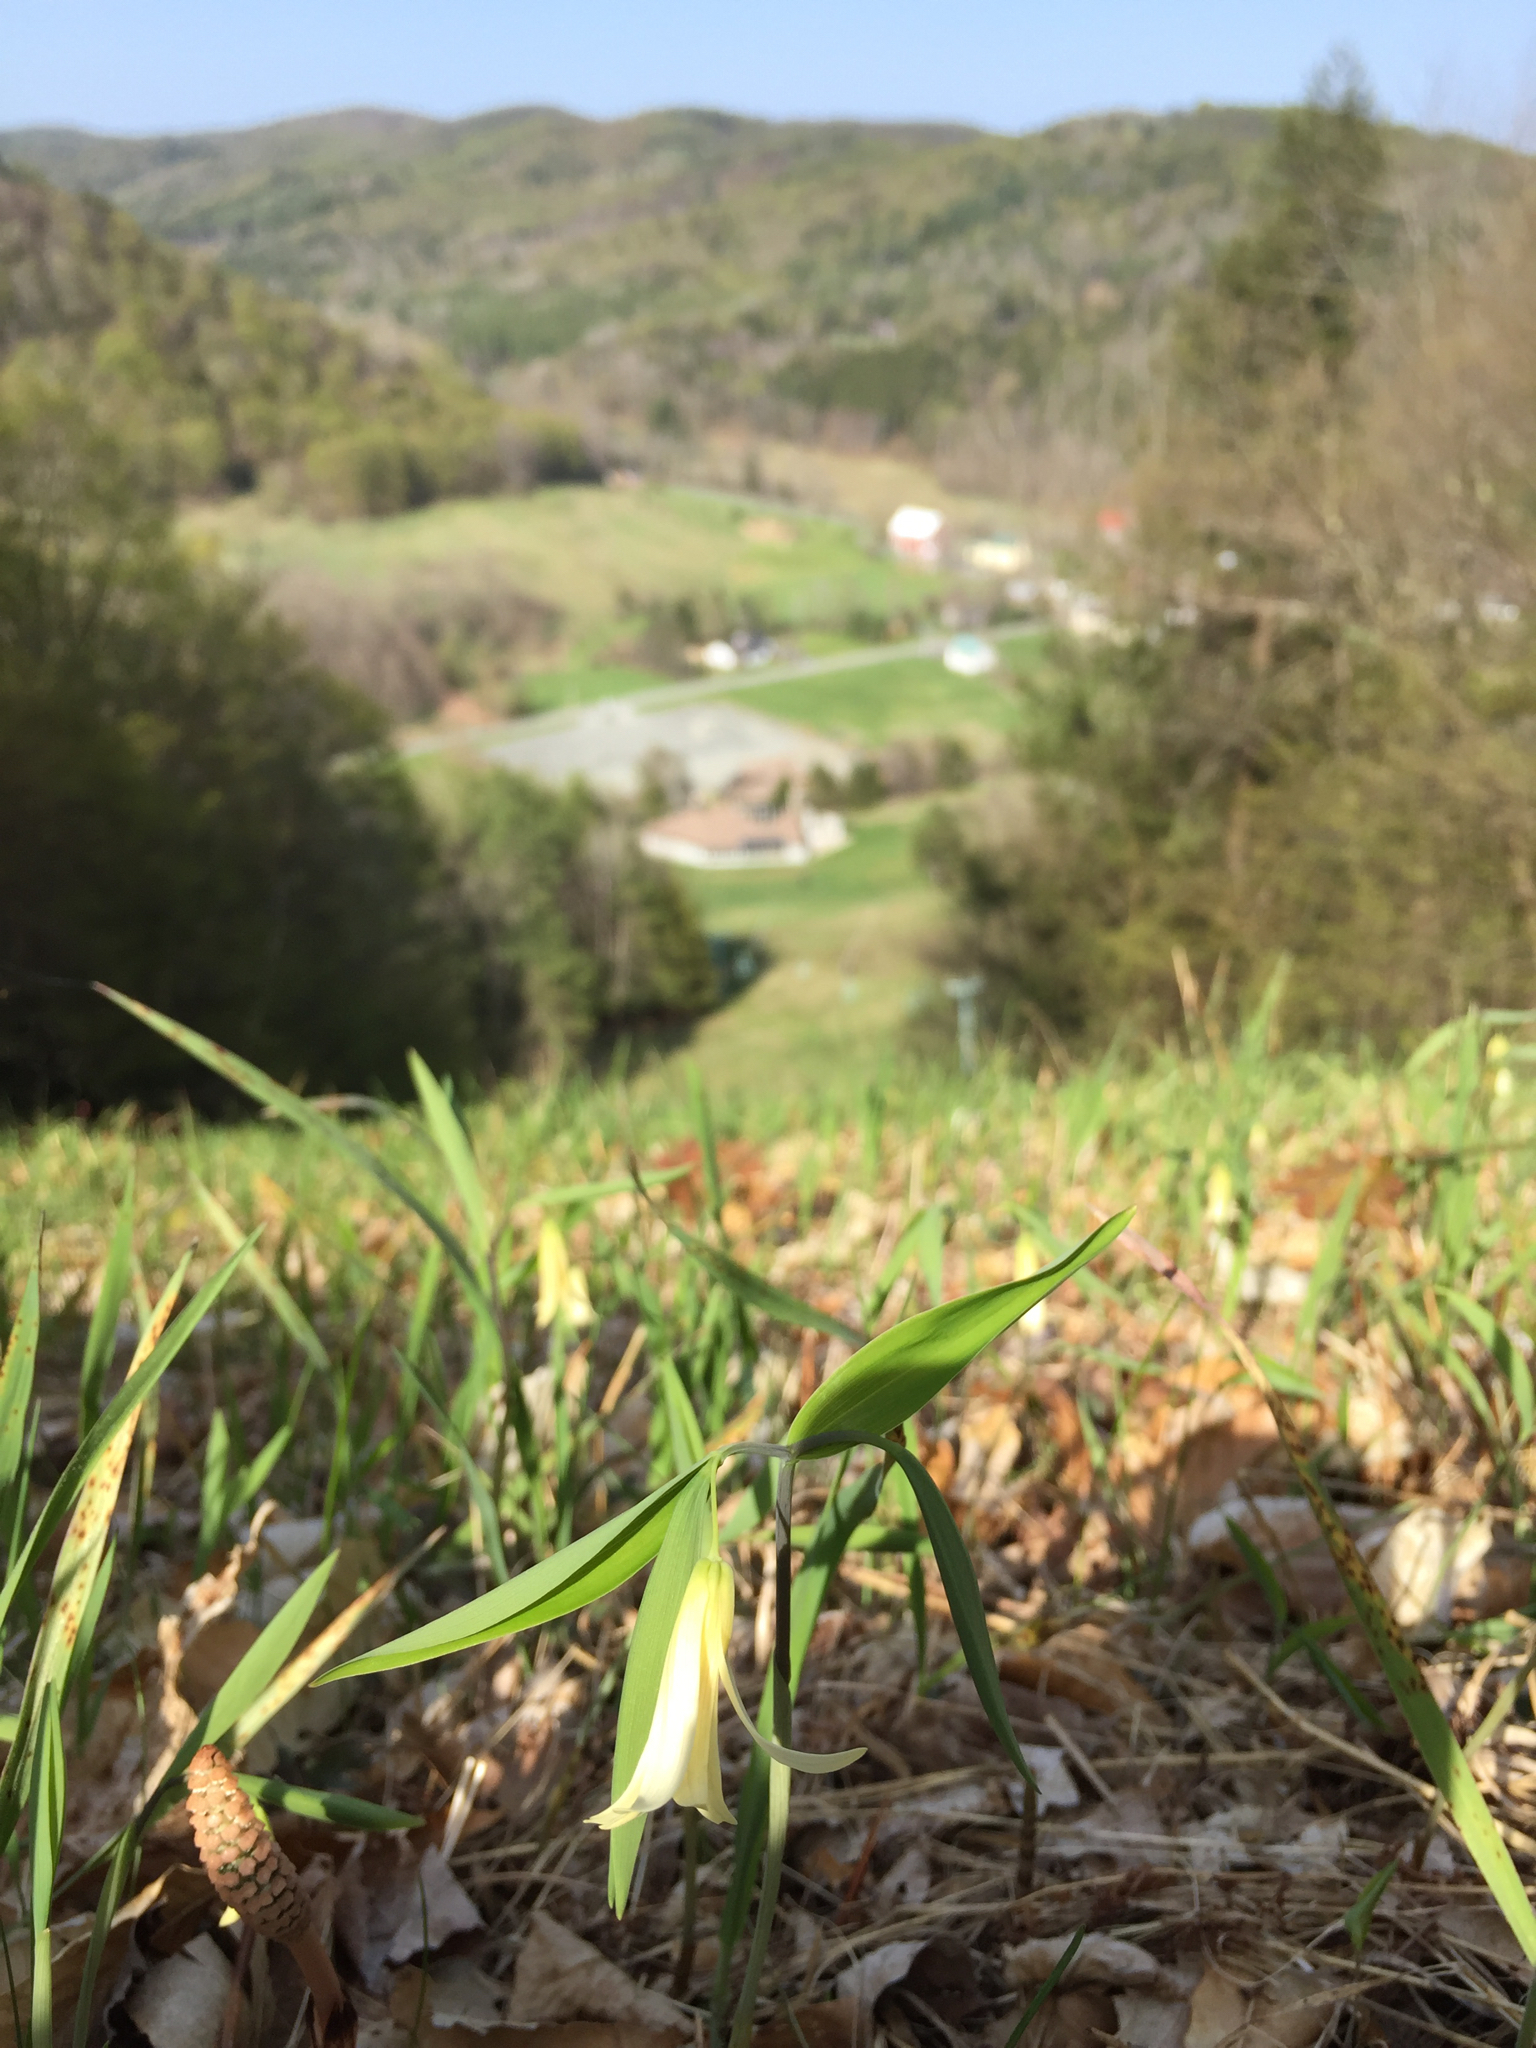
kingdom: Plantae
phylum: Tracheophyta
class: Liliopsida
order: Liliales
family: Colchicaceae
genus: Uvularia
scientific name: Uvularia sessilifolia
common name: Straw-lily
